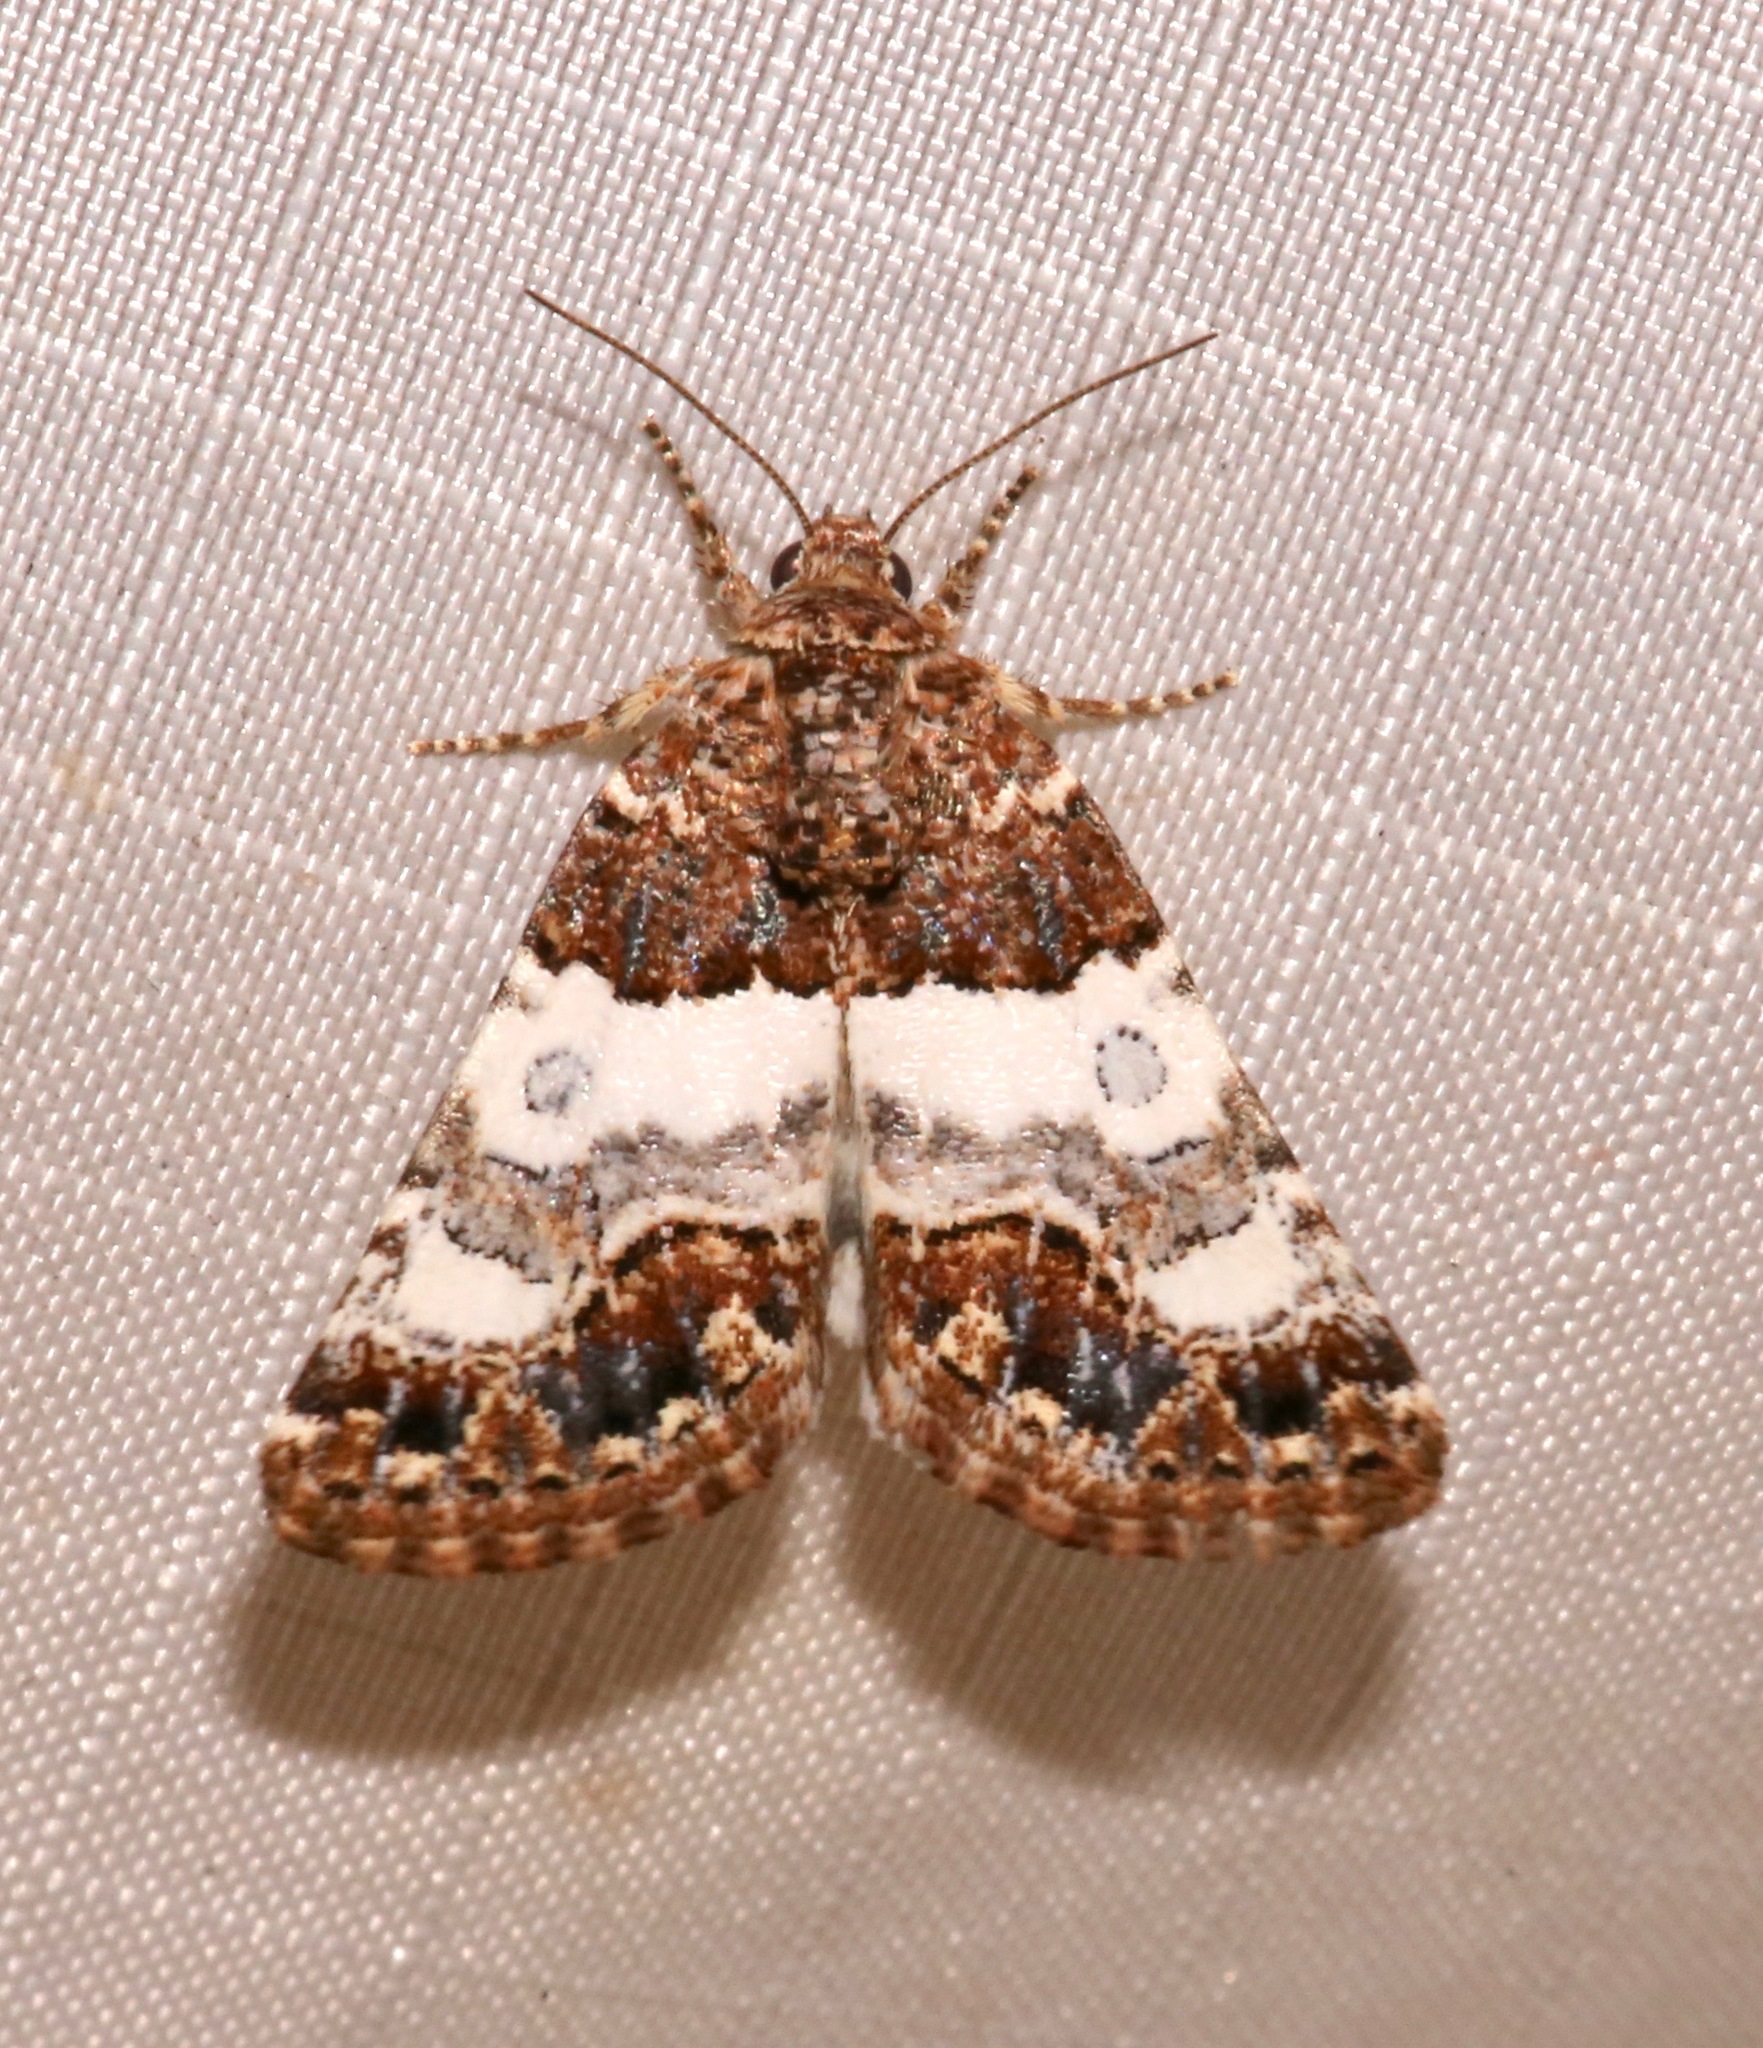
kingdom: Animalia
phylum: Arthropoda
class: Insecta
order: Lepidoptera
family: Noctuidae
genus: Schinia
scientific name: Schinia albafascia
